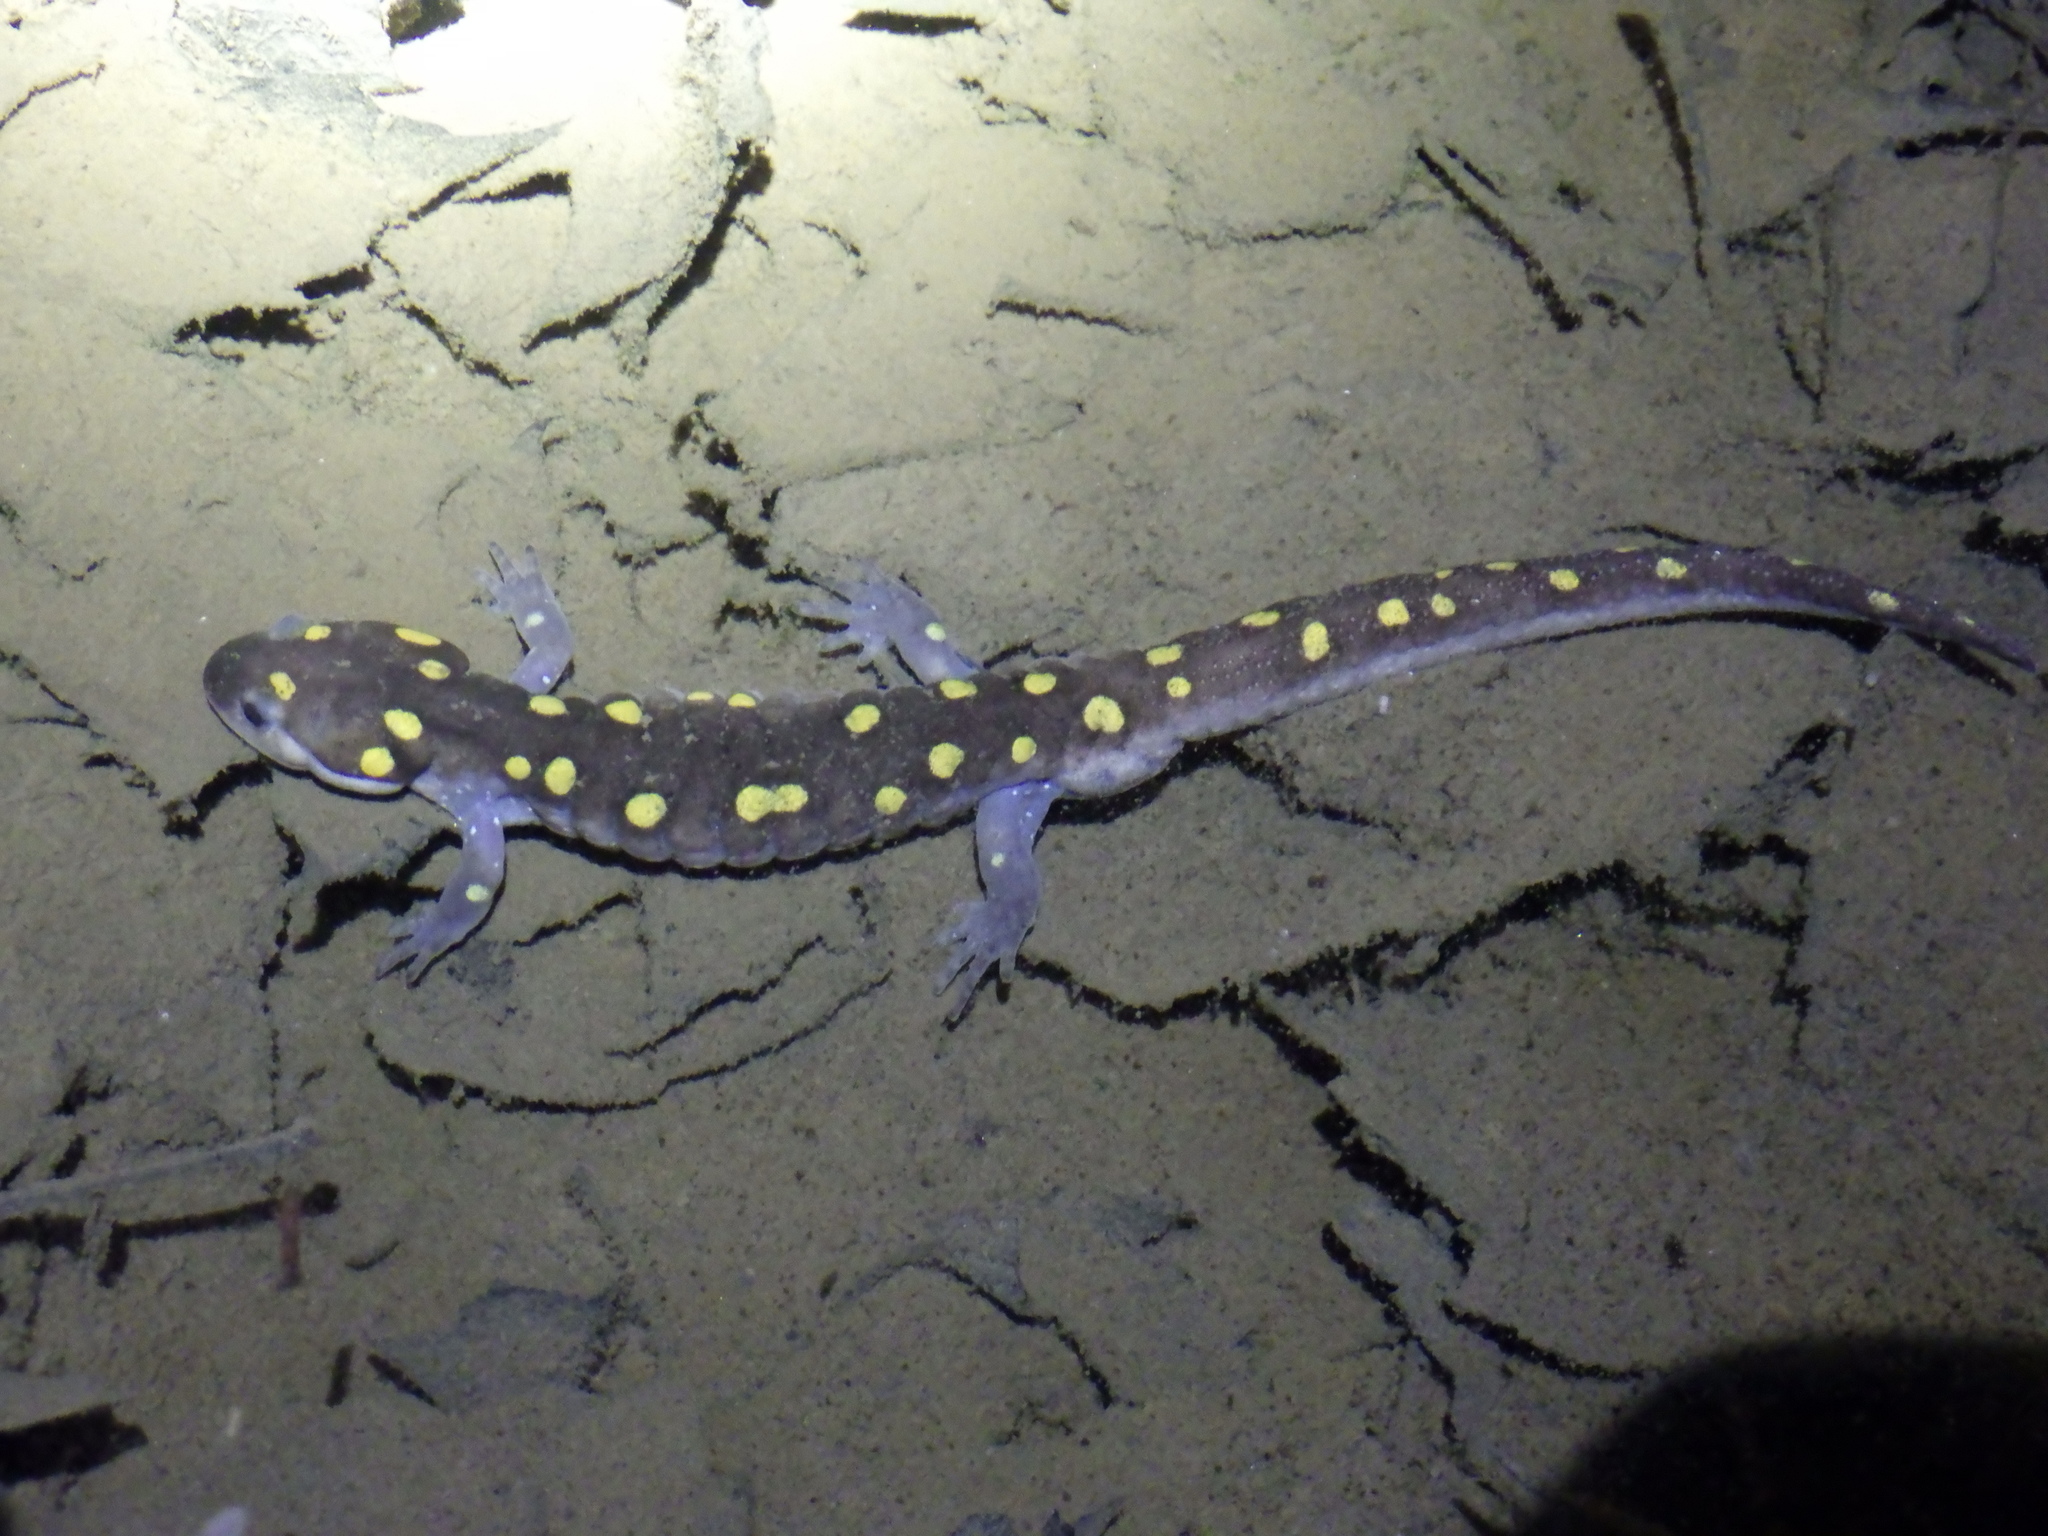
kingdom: Animalia
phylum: Chordata
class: Amphibia
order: Caudata
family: Ambystomatidae
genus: Ambystoma
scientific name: Ambystoma maculatum
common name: Spotted salamander
